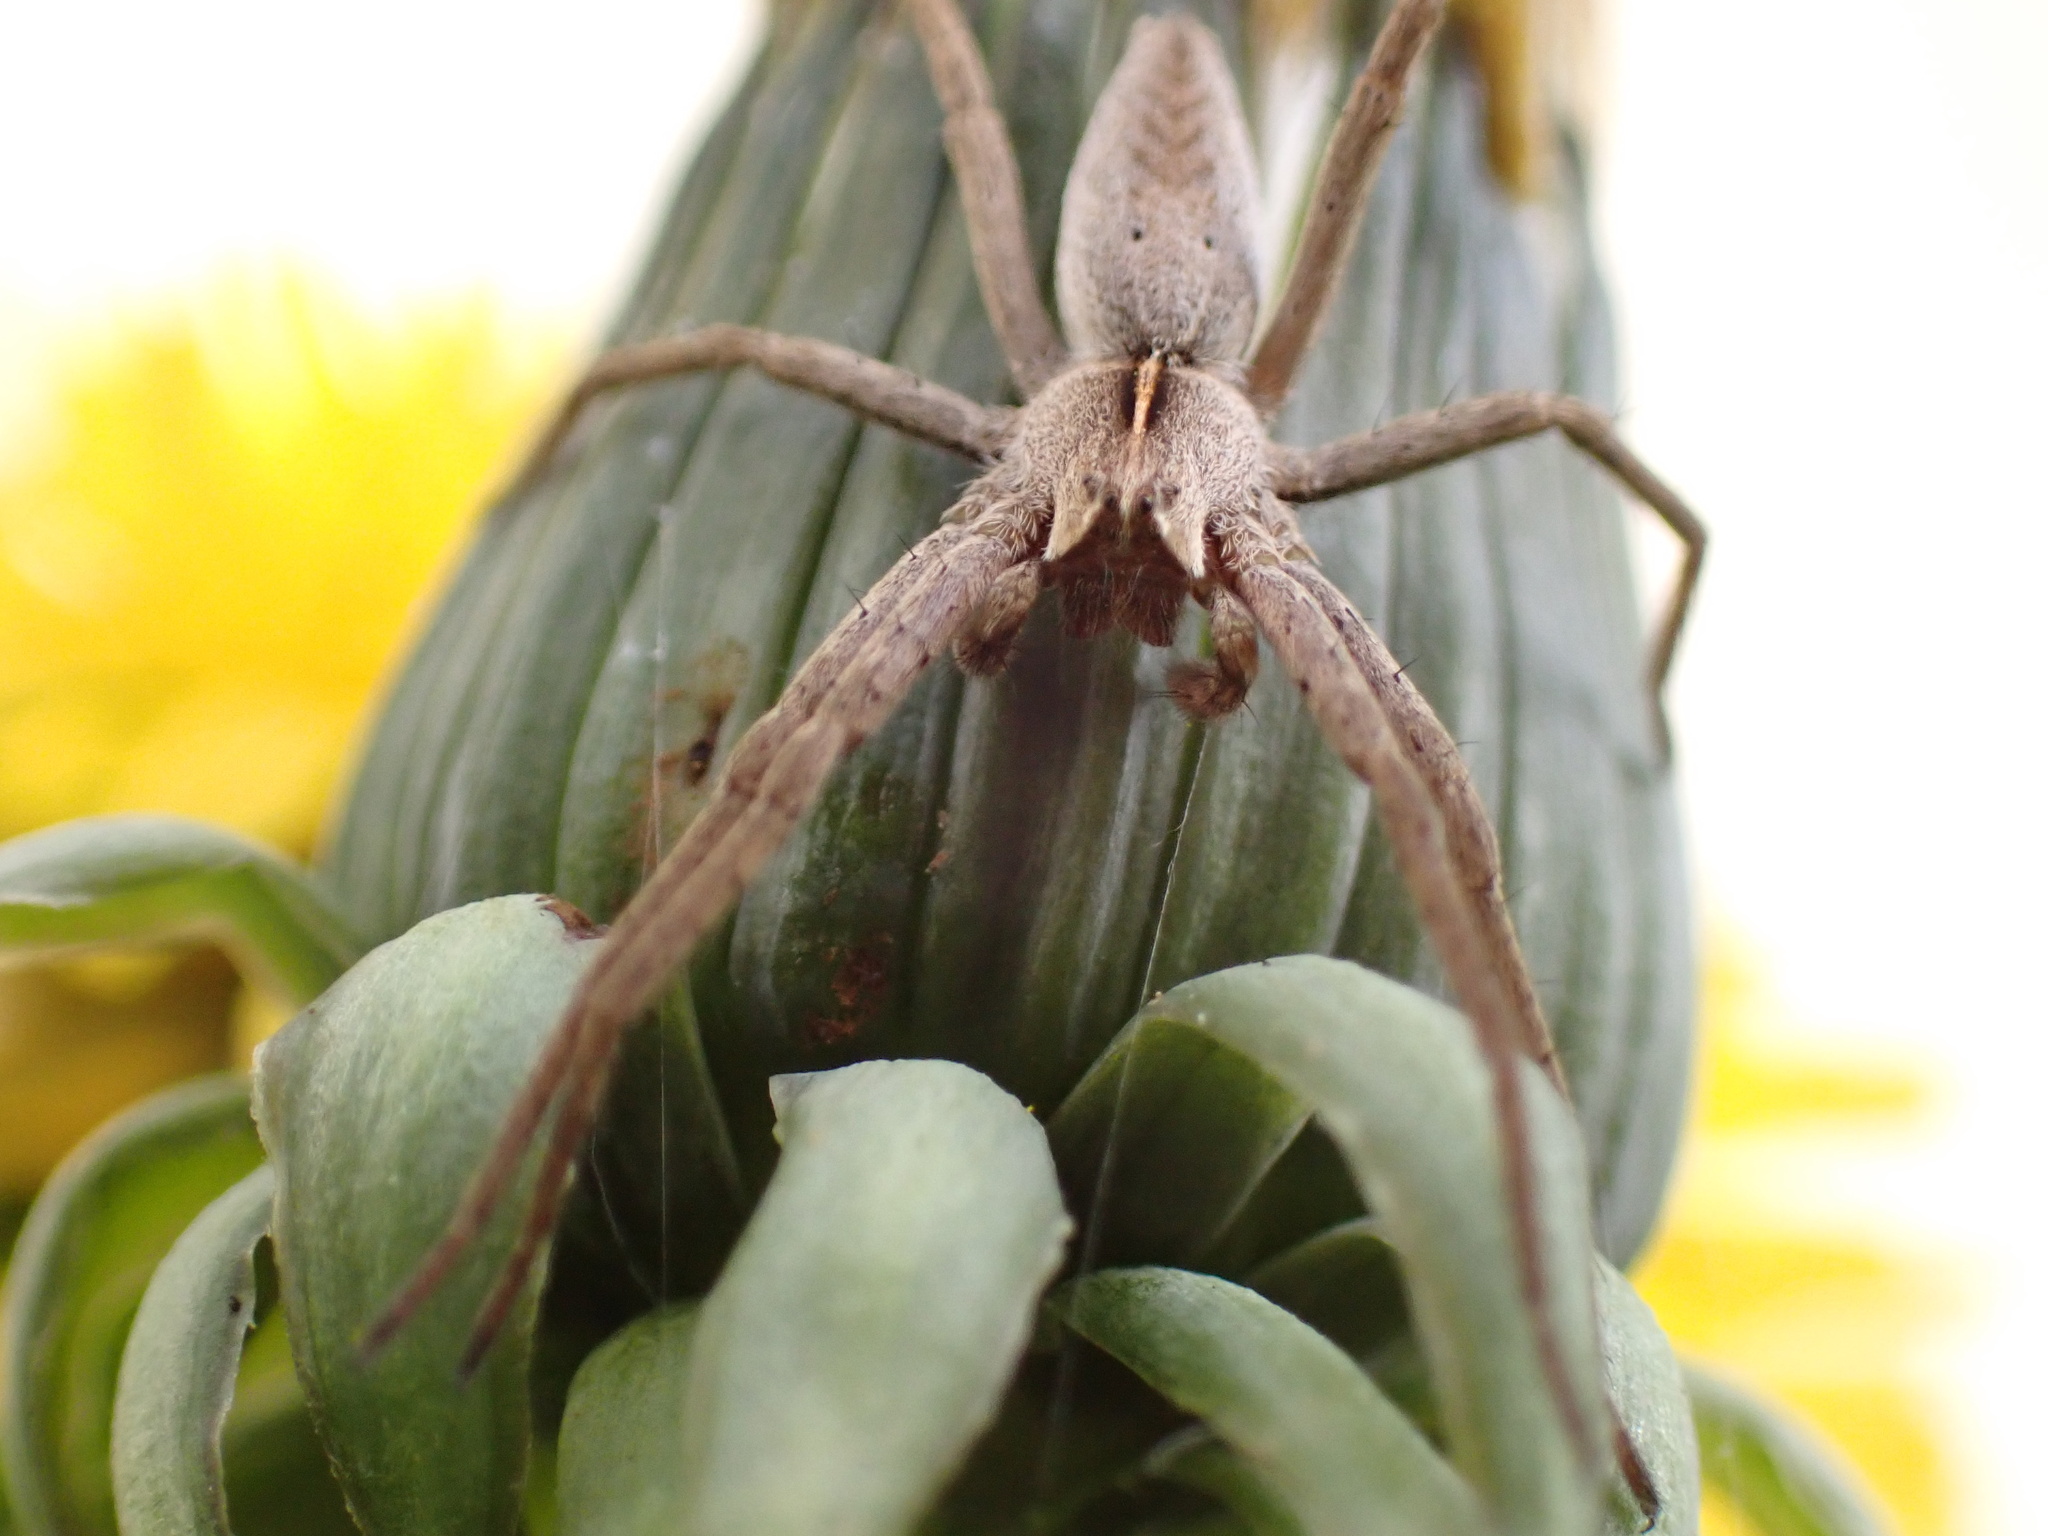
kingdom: Animalia
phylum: Arthropoda
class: Arachnida
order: Araneae
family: Pisauridae
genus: Pisaura
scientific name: Pisaura mirabilis
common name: Tent spider
